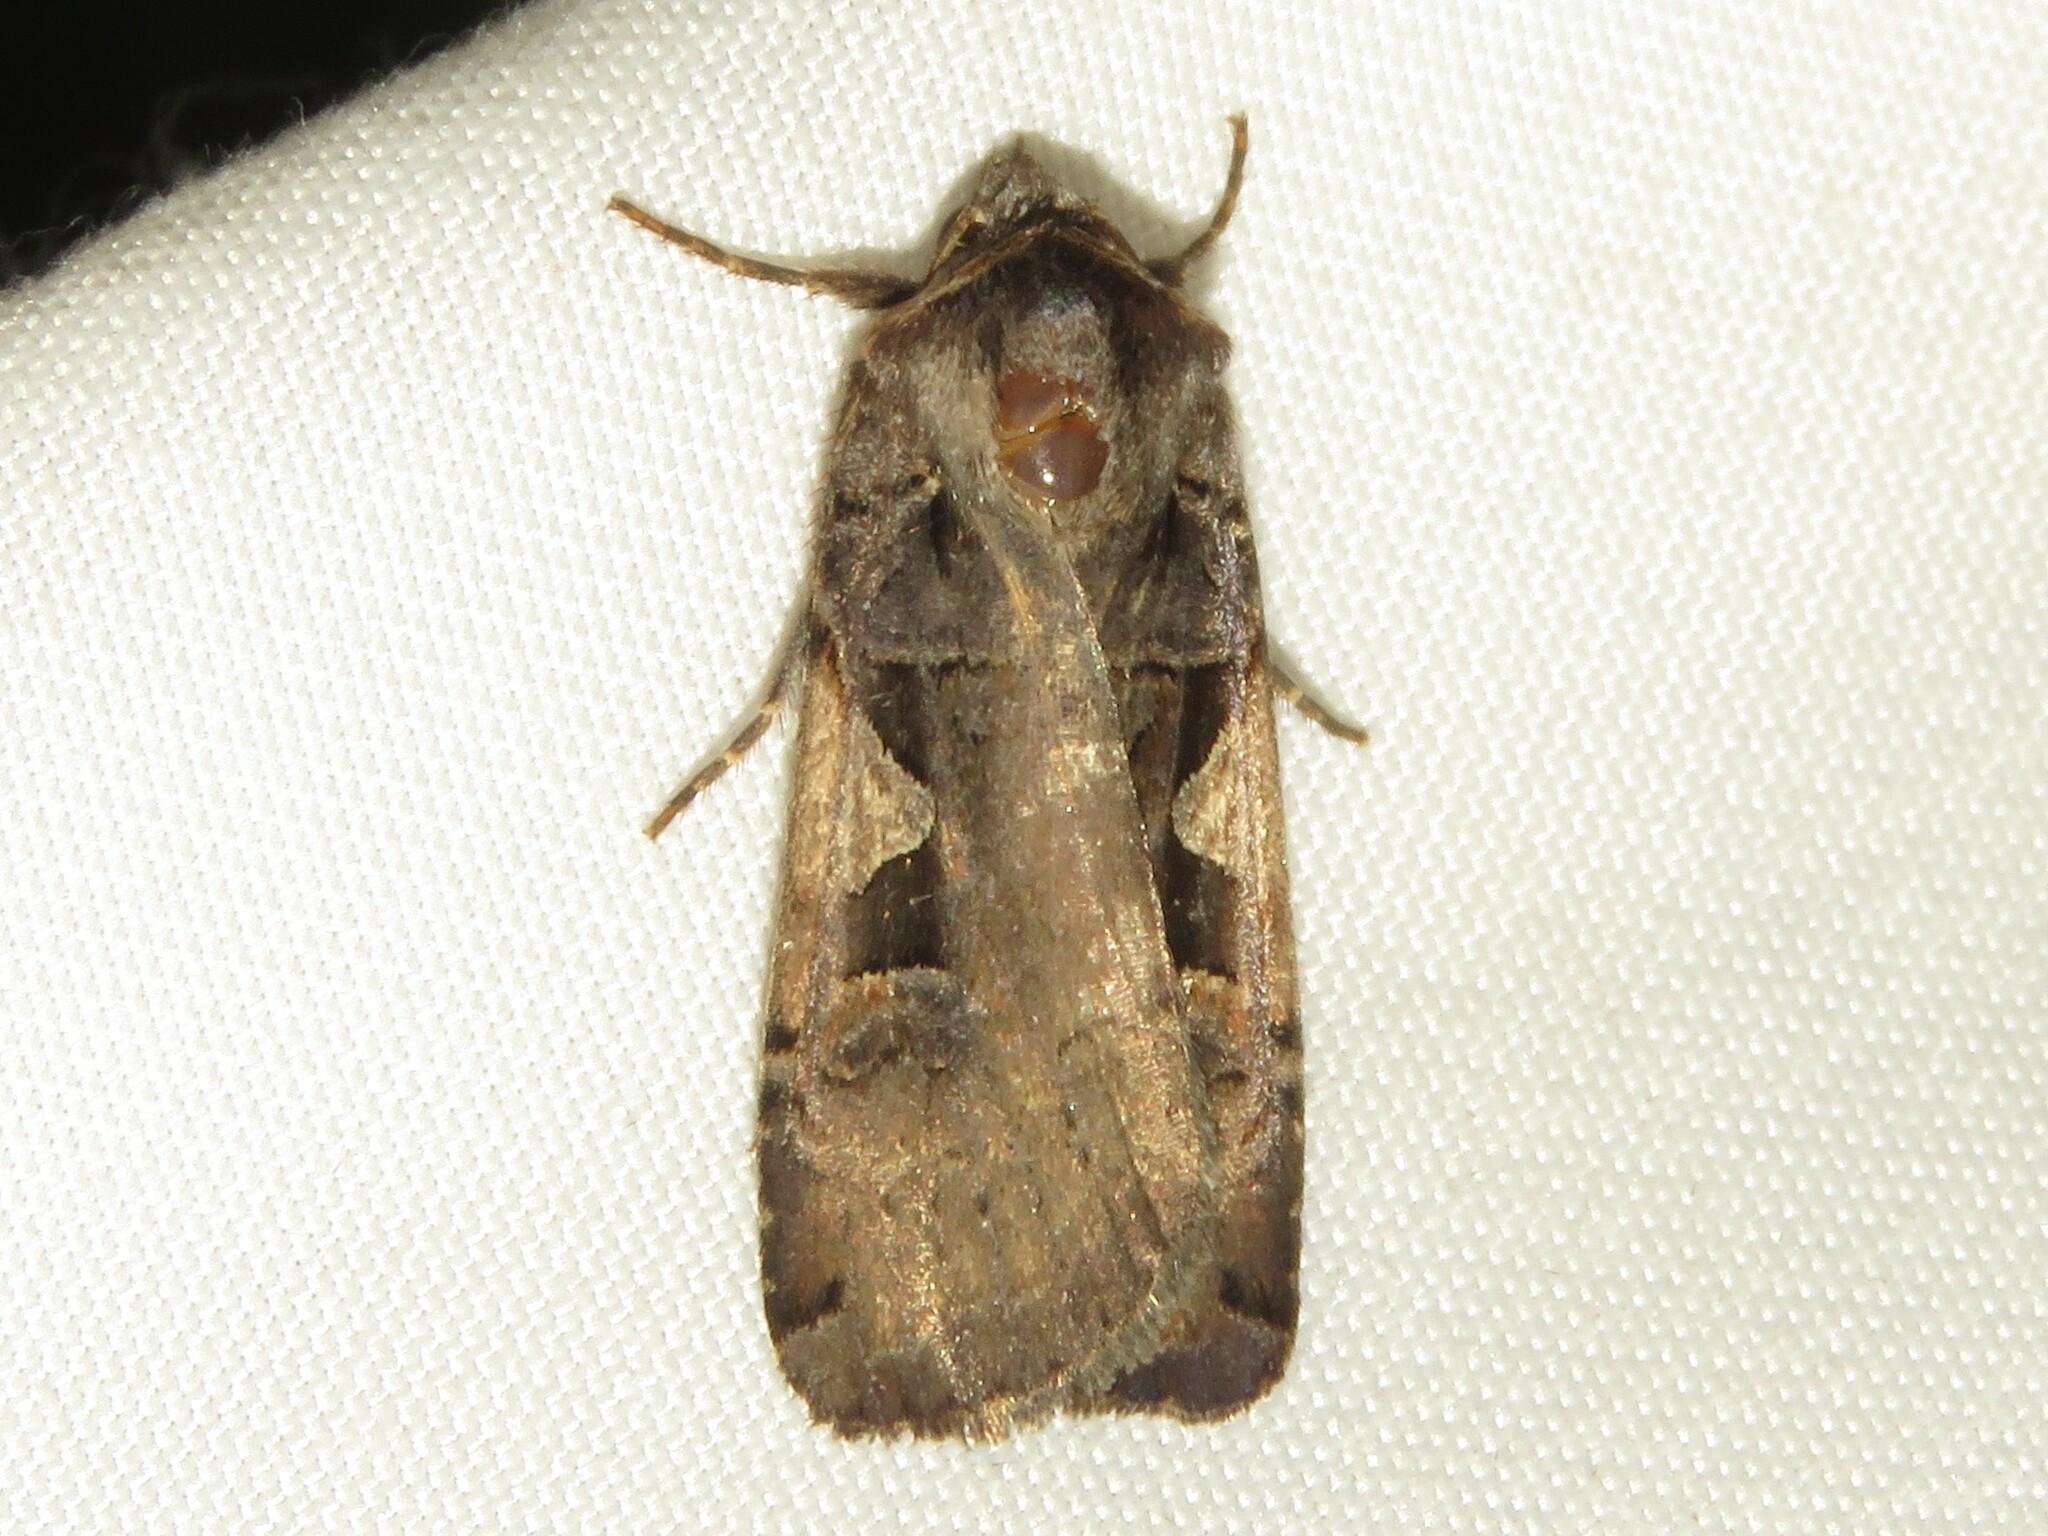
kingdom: Animalia
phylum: Arthropoda
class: Insecta
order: Lepidoptera
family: Noctuidae
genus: Xestia
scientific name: Xestia
